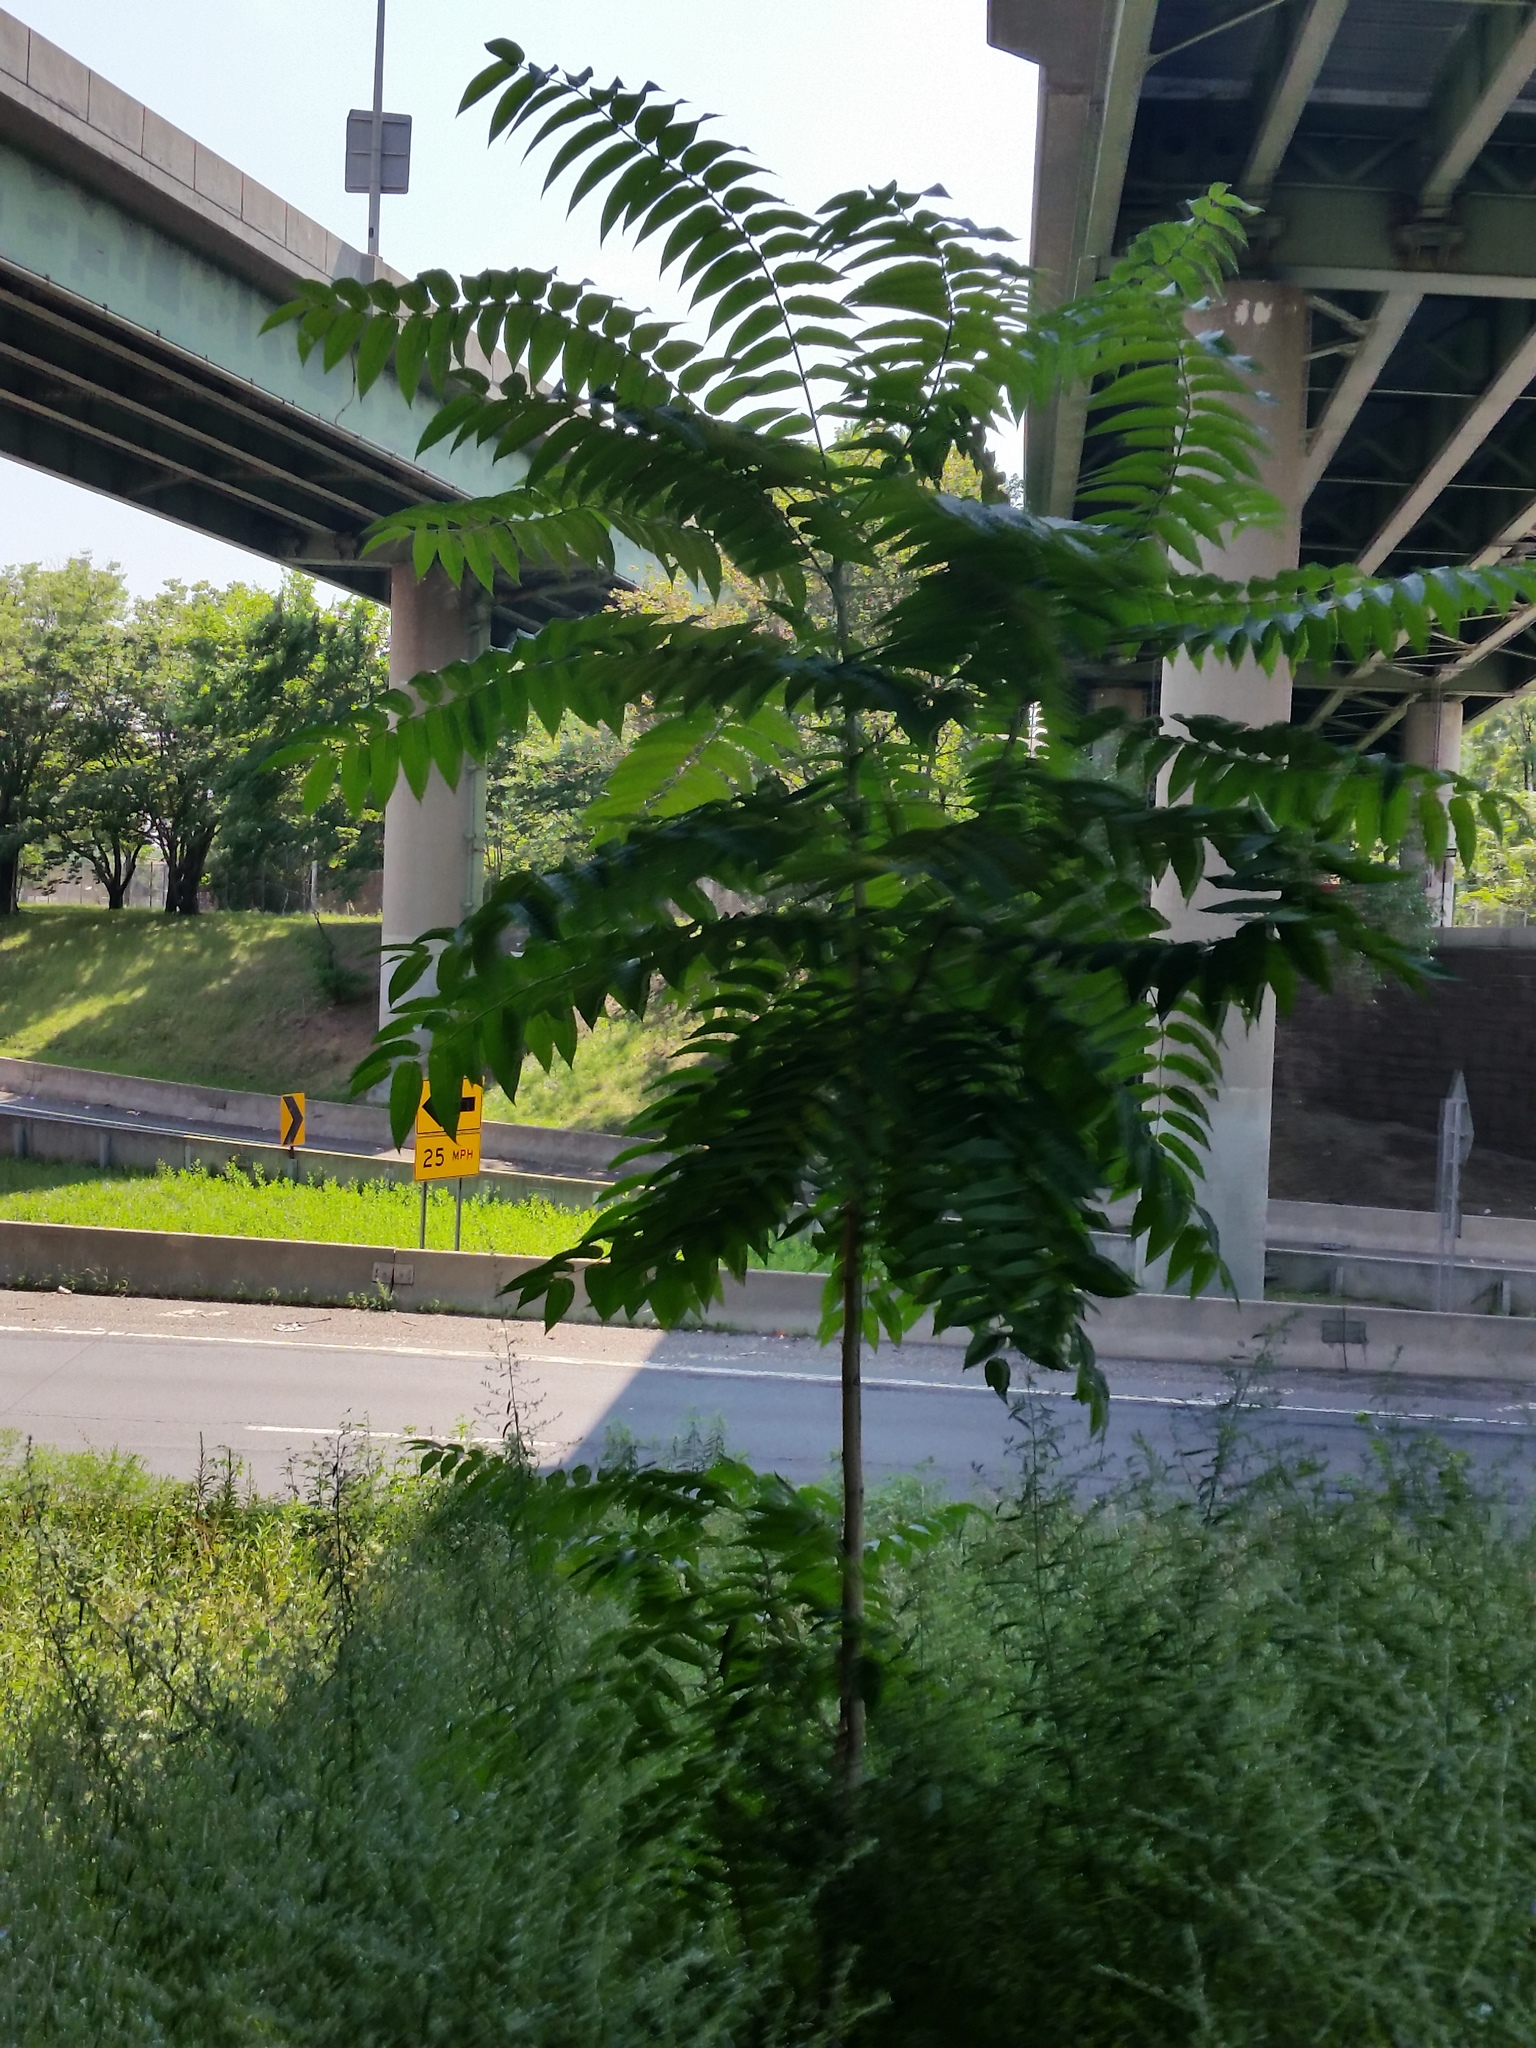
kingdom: Plantae
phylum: Tracheophyta
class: Magnoliopsida
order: Sapindales
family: Simaroubaceae
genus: Ailanthus
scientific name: Ailanthus altissima
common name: Tree-of-heaven
